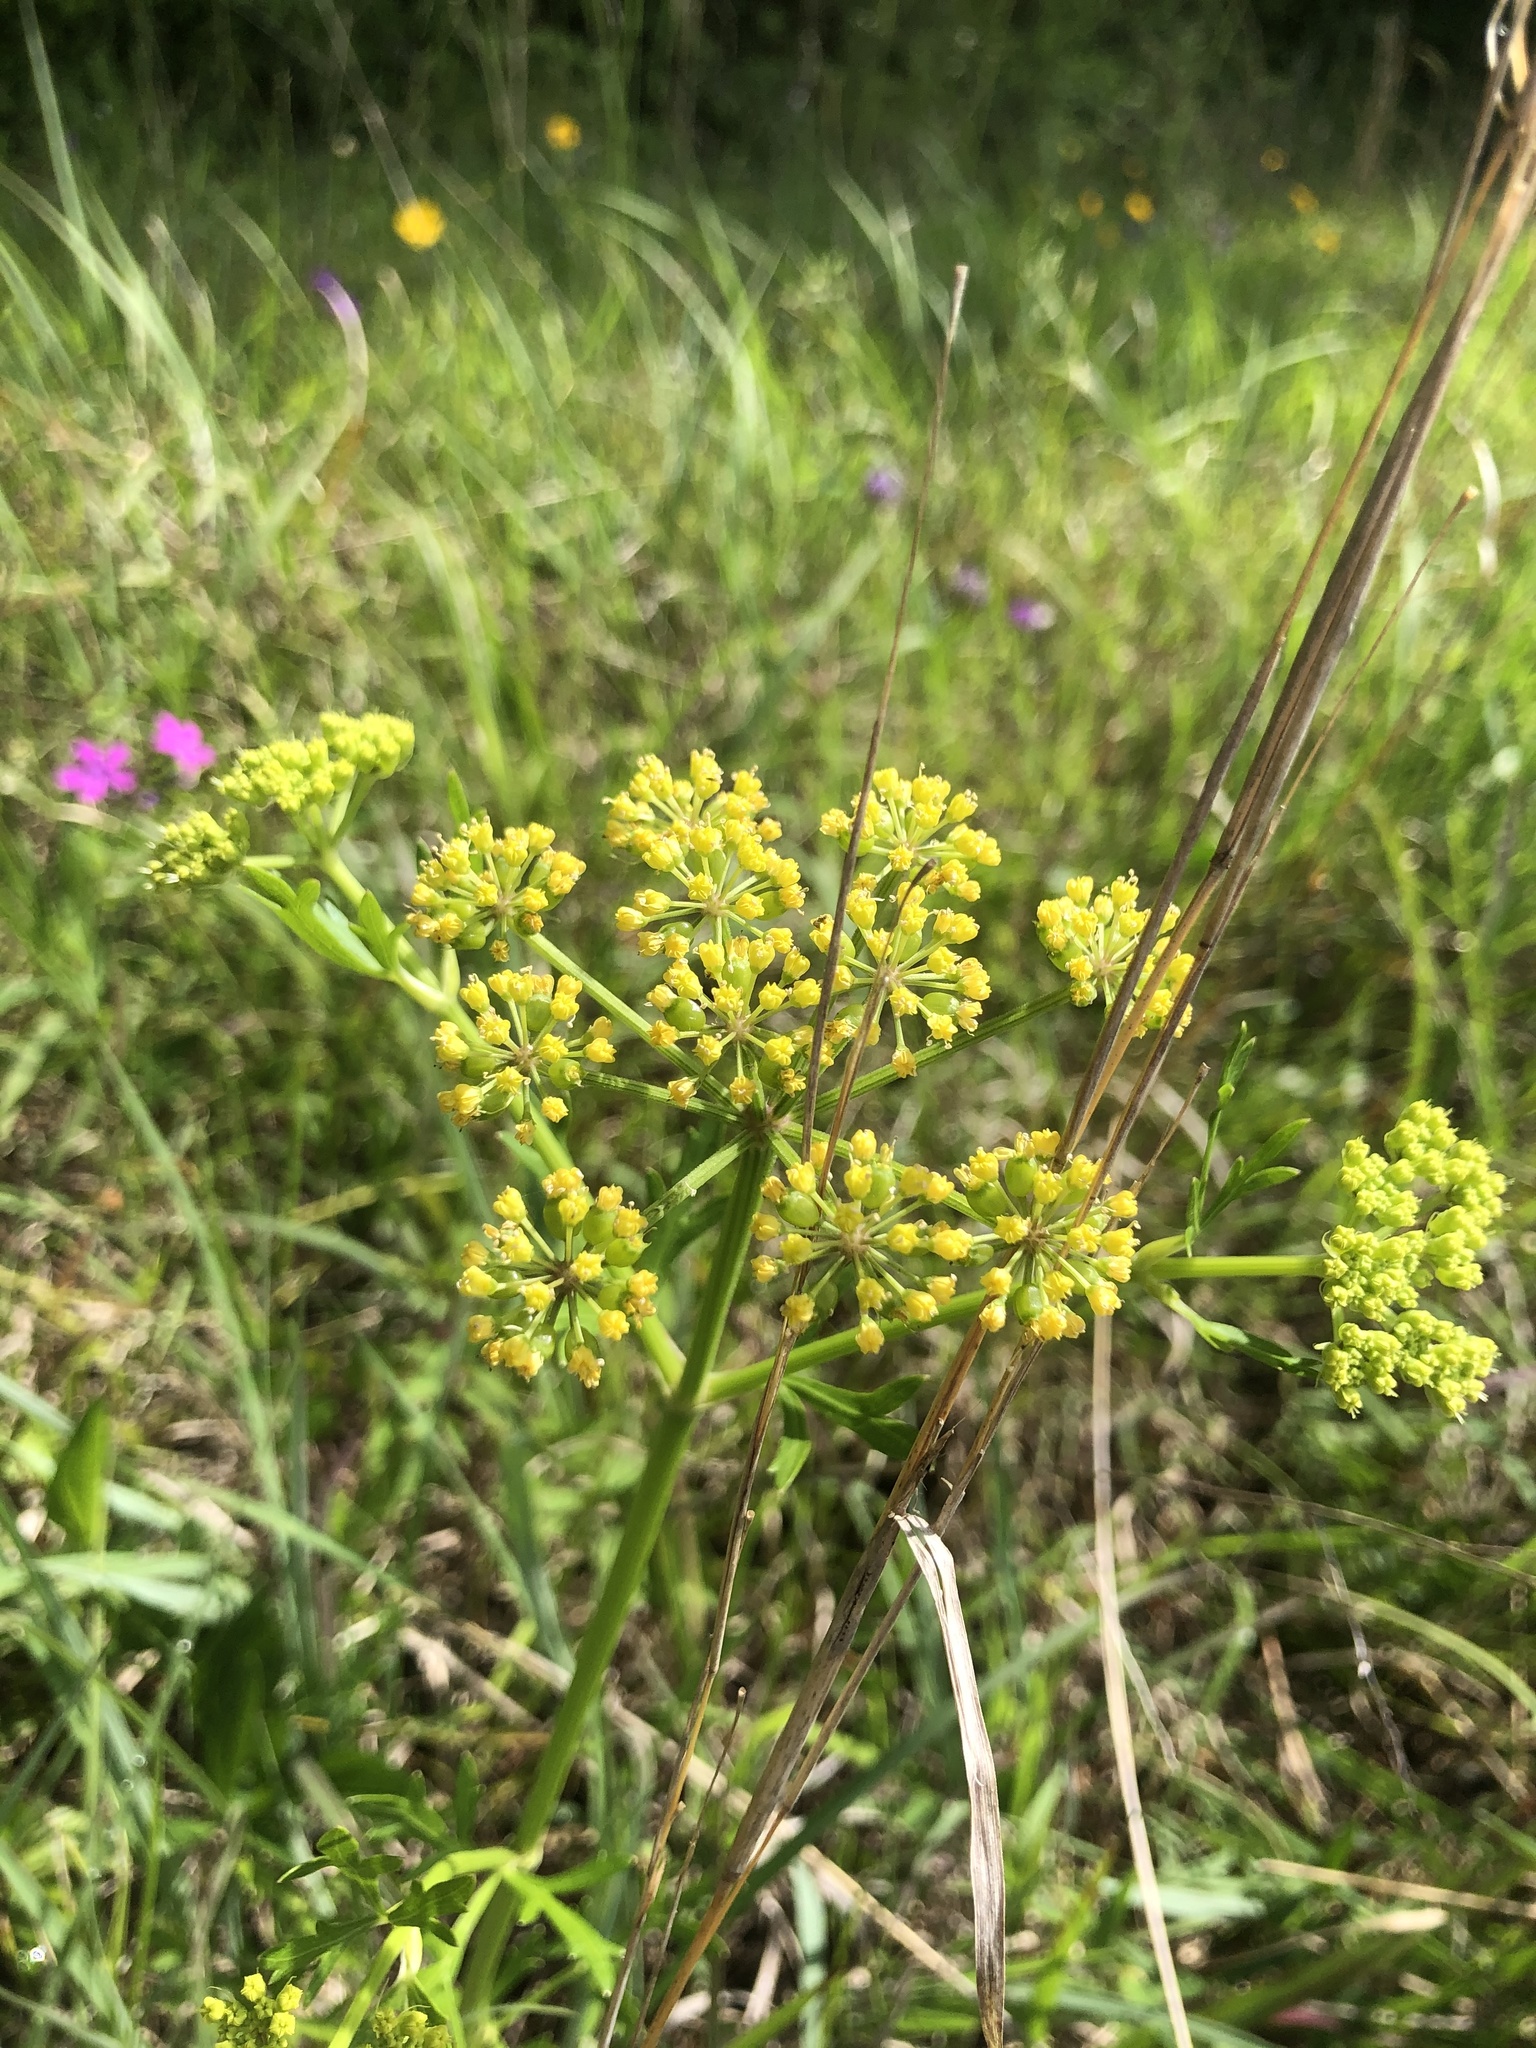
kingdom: Plantae
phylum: Tracheophyta
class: Magnoliopsida
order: Apiales
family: Apiaceae
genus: Polytaenia
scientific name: Polytaenia nuttallii
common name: Prairie-parsley
